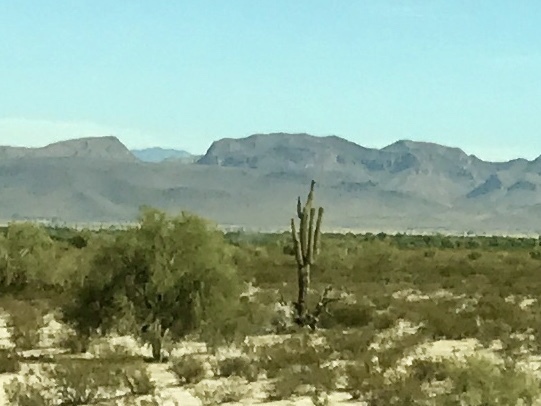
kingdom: Plantae
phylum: Tracheophyta
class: Magnoliopsida
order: Caryophyllales
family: Cactaceae
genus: Carnegiea
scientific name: Carnegiea gigantea
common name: Saguaro
